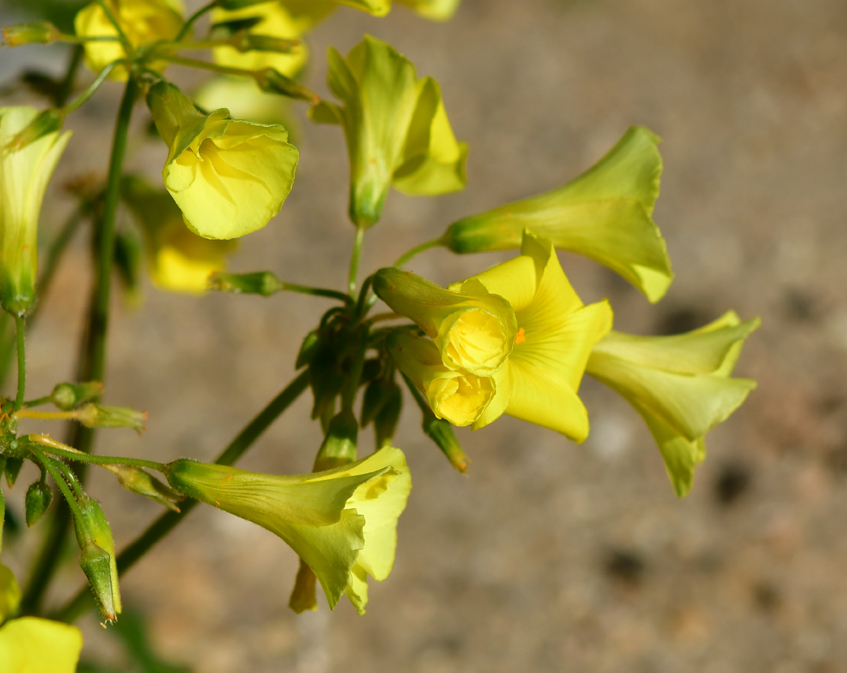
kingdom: Plantae
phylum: Tracheophyta
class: Magnoliopsida
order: Oxalidales
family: Oxalidaceae
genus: Oxalis
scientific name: Oxalis pes-caprae
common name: Bermuda-buttercup
